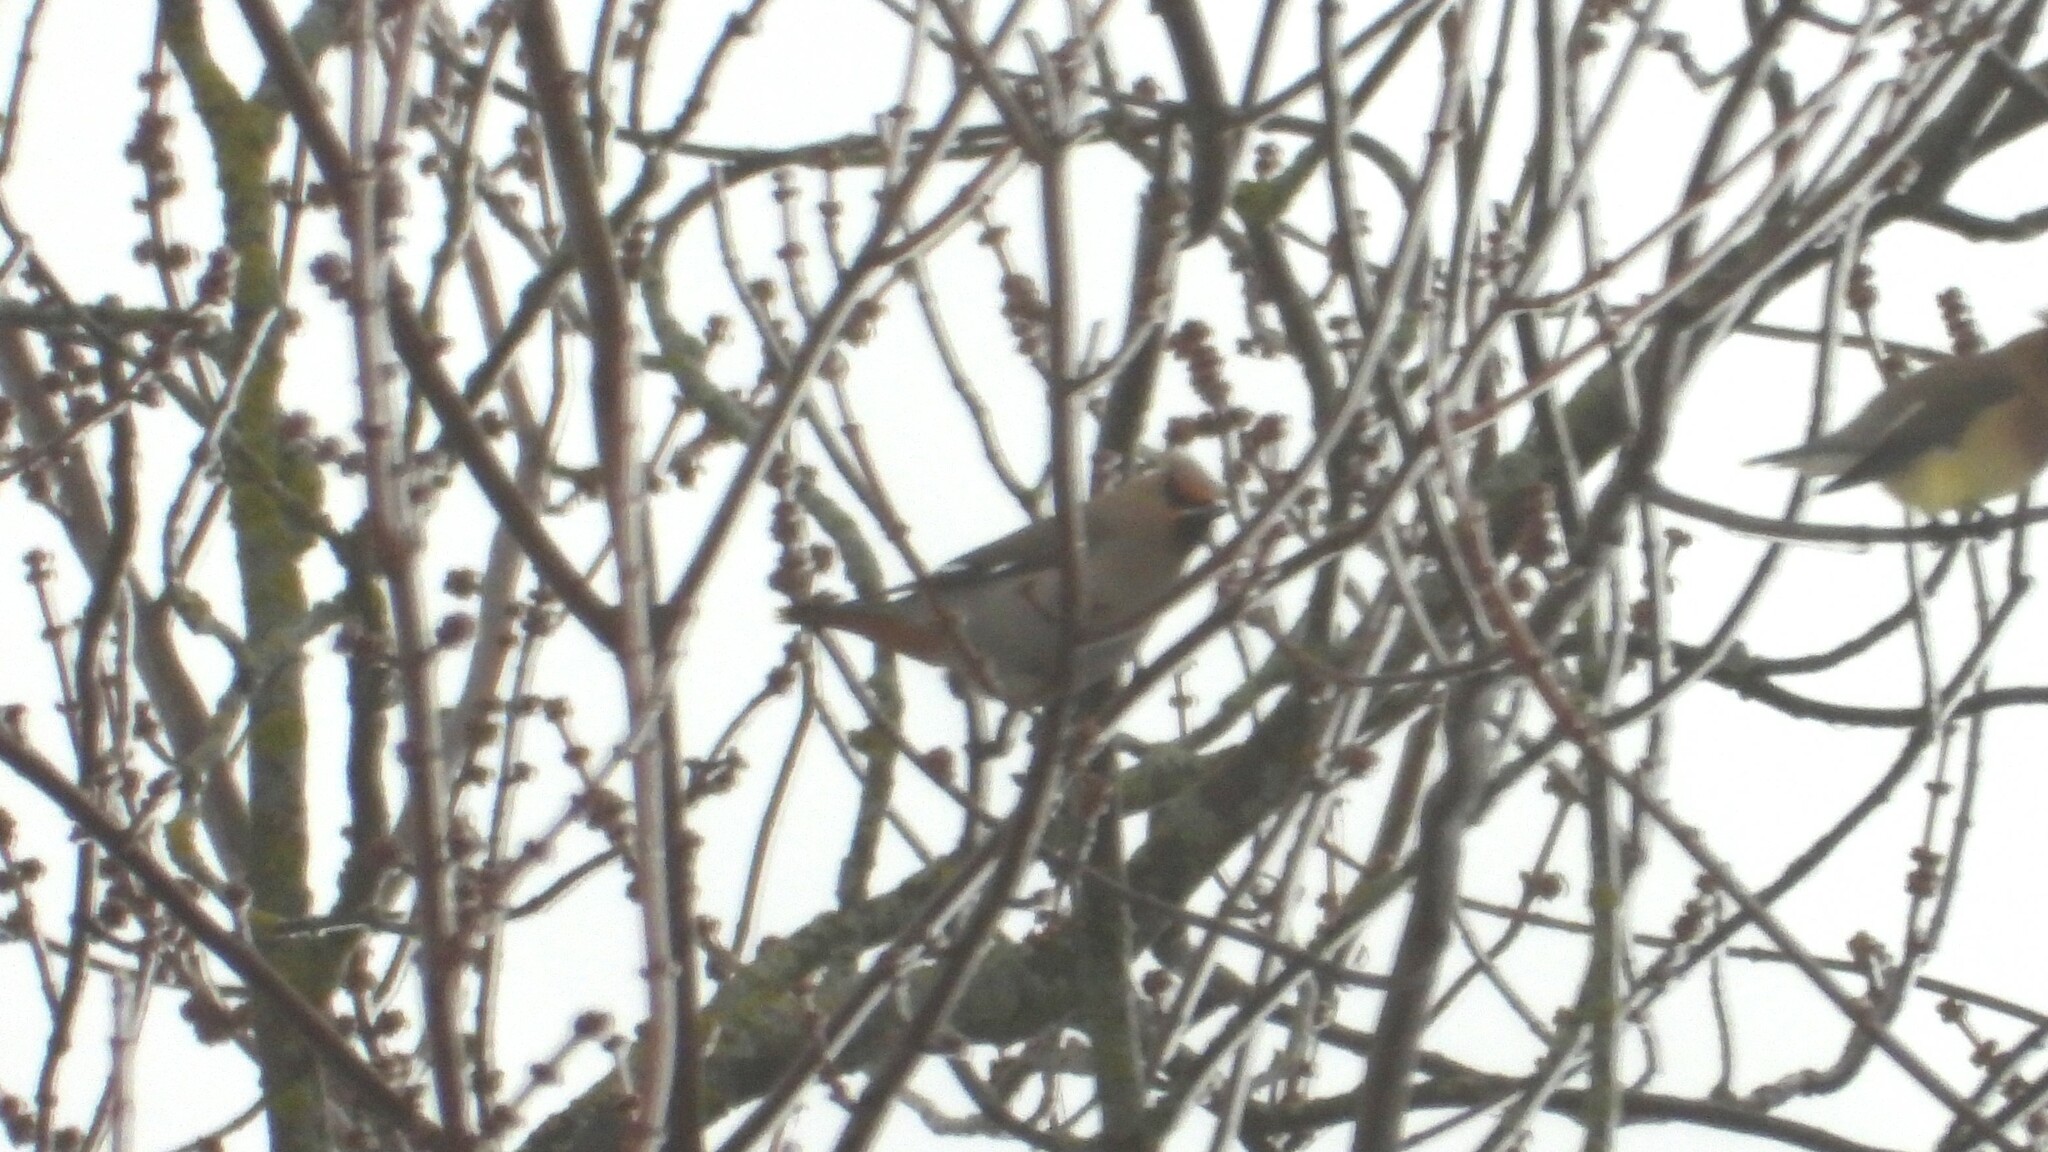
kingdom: Animalia
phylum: Chordata
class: Aves
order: Passeriformes
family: Bombycillidae
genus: Bombycilla
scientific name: Bombycilla garrulus
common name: Bohemian waxwing
